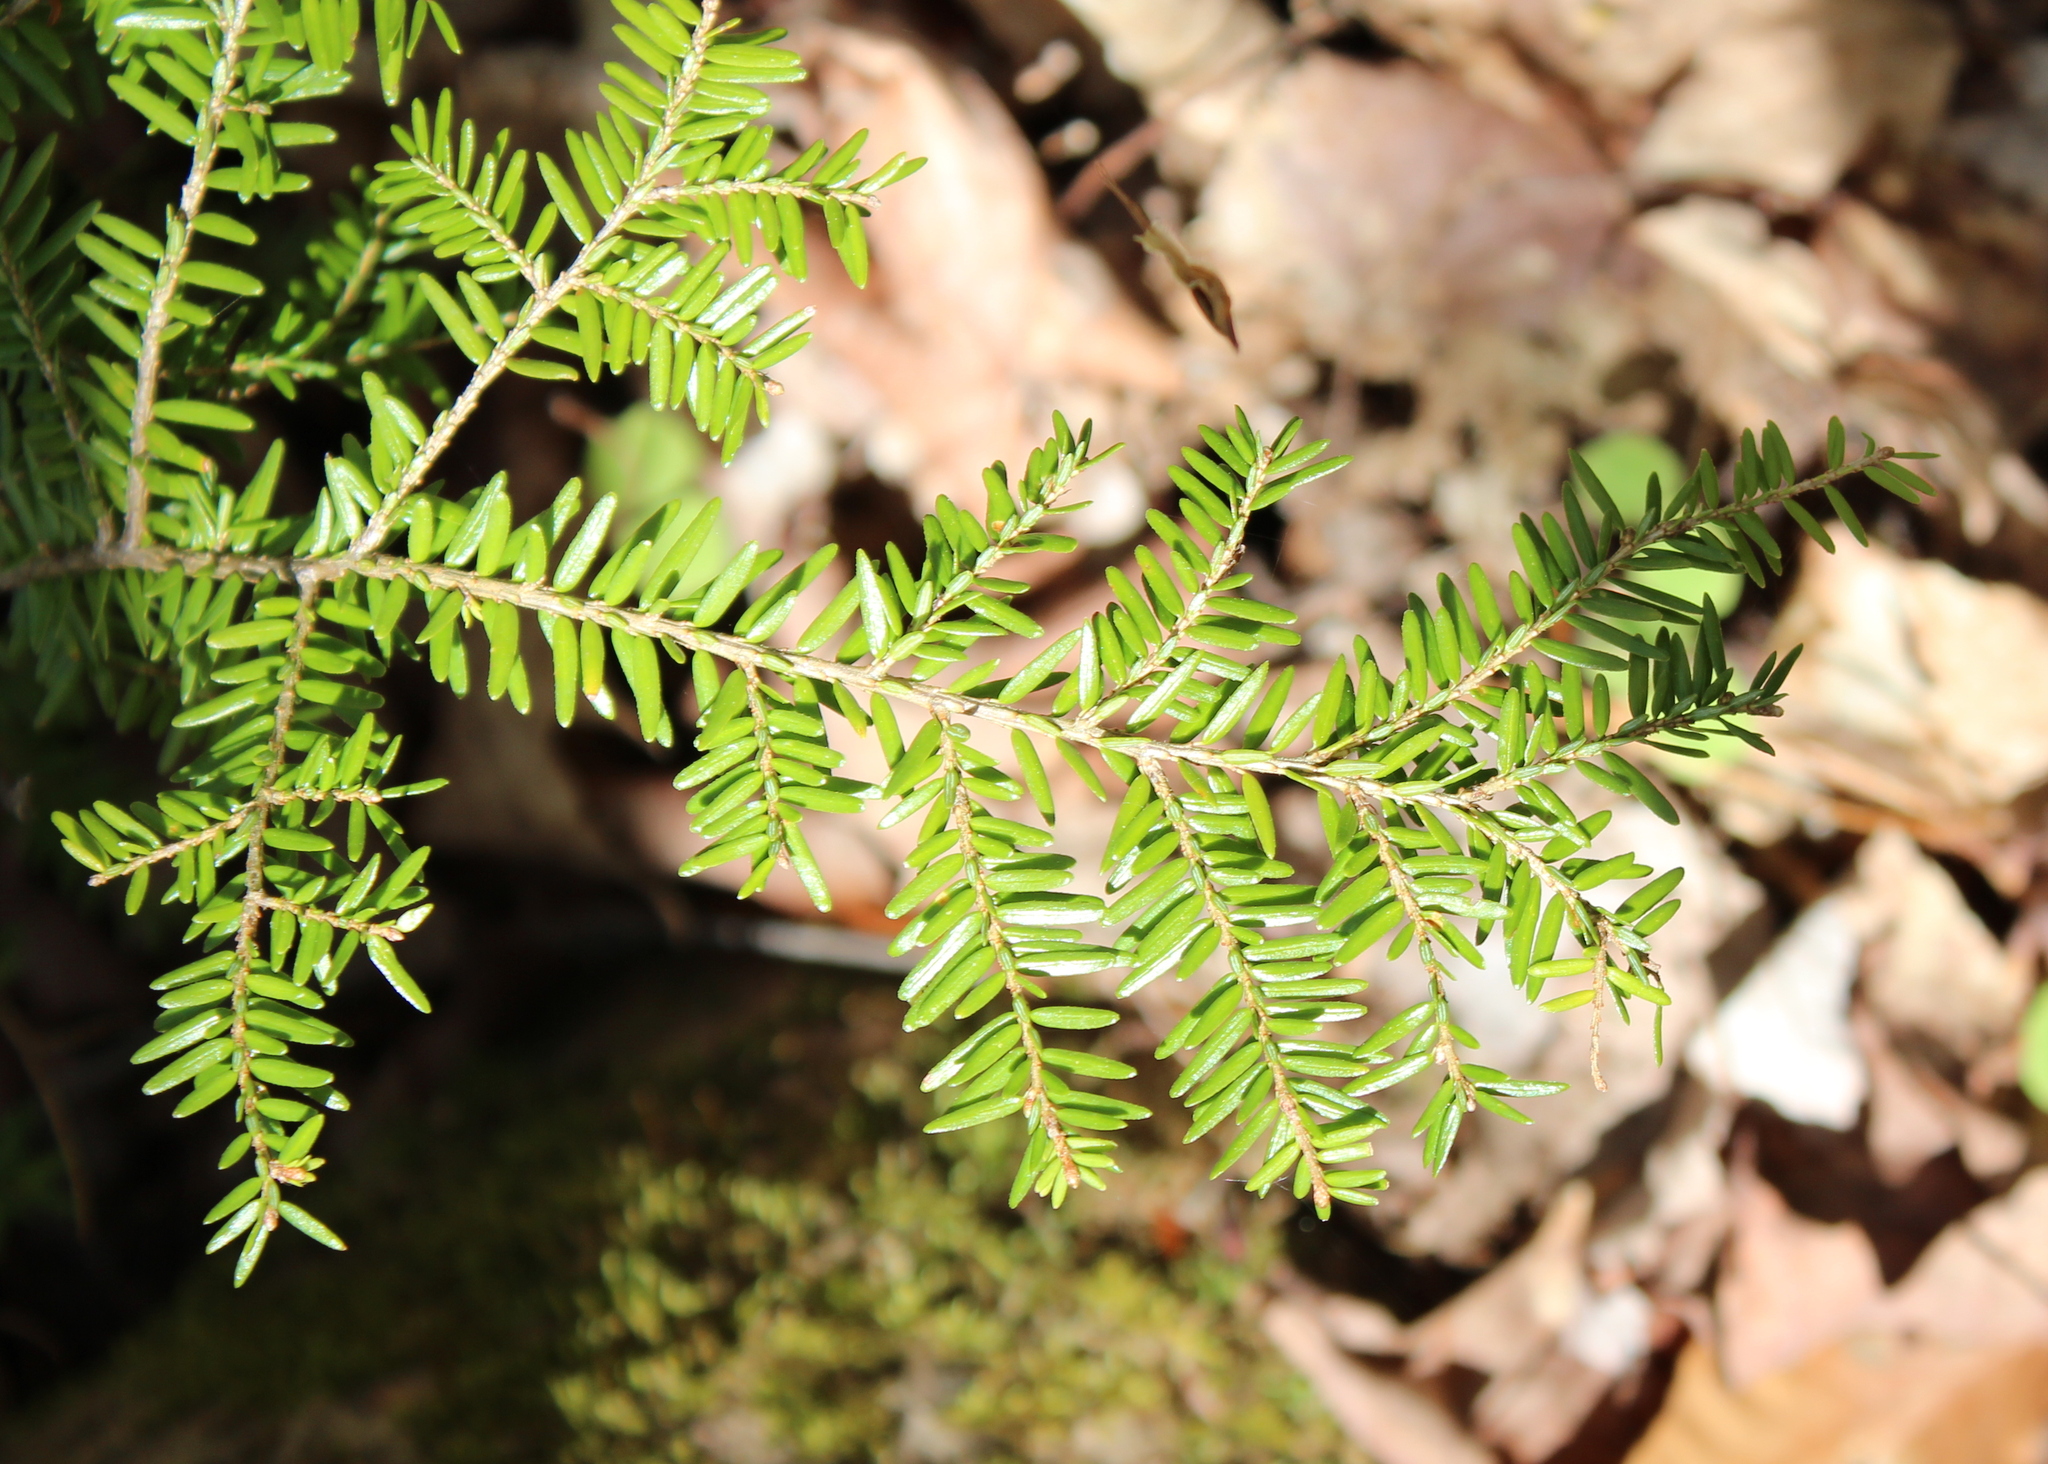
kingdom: Plantae
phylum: Tracheophyta
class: Pinopsida
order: Pinales
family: Pinaceae
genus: Tsuga
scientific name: Tsuga canadensis
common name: Eastern hemlock
